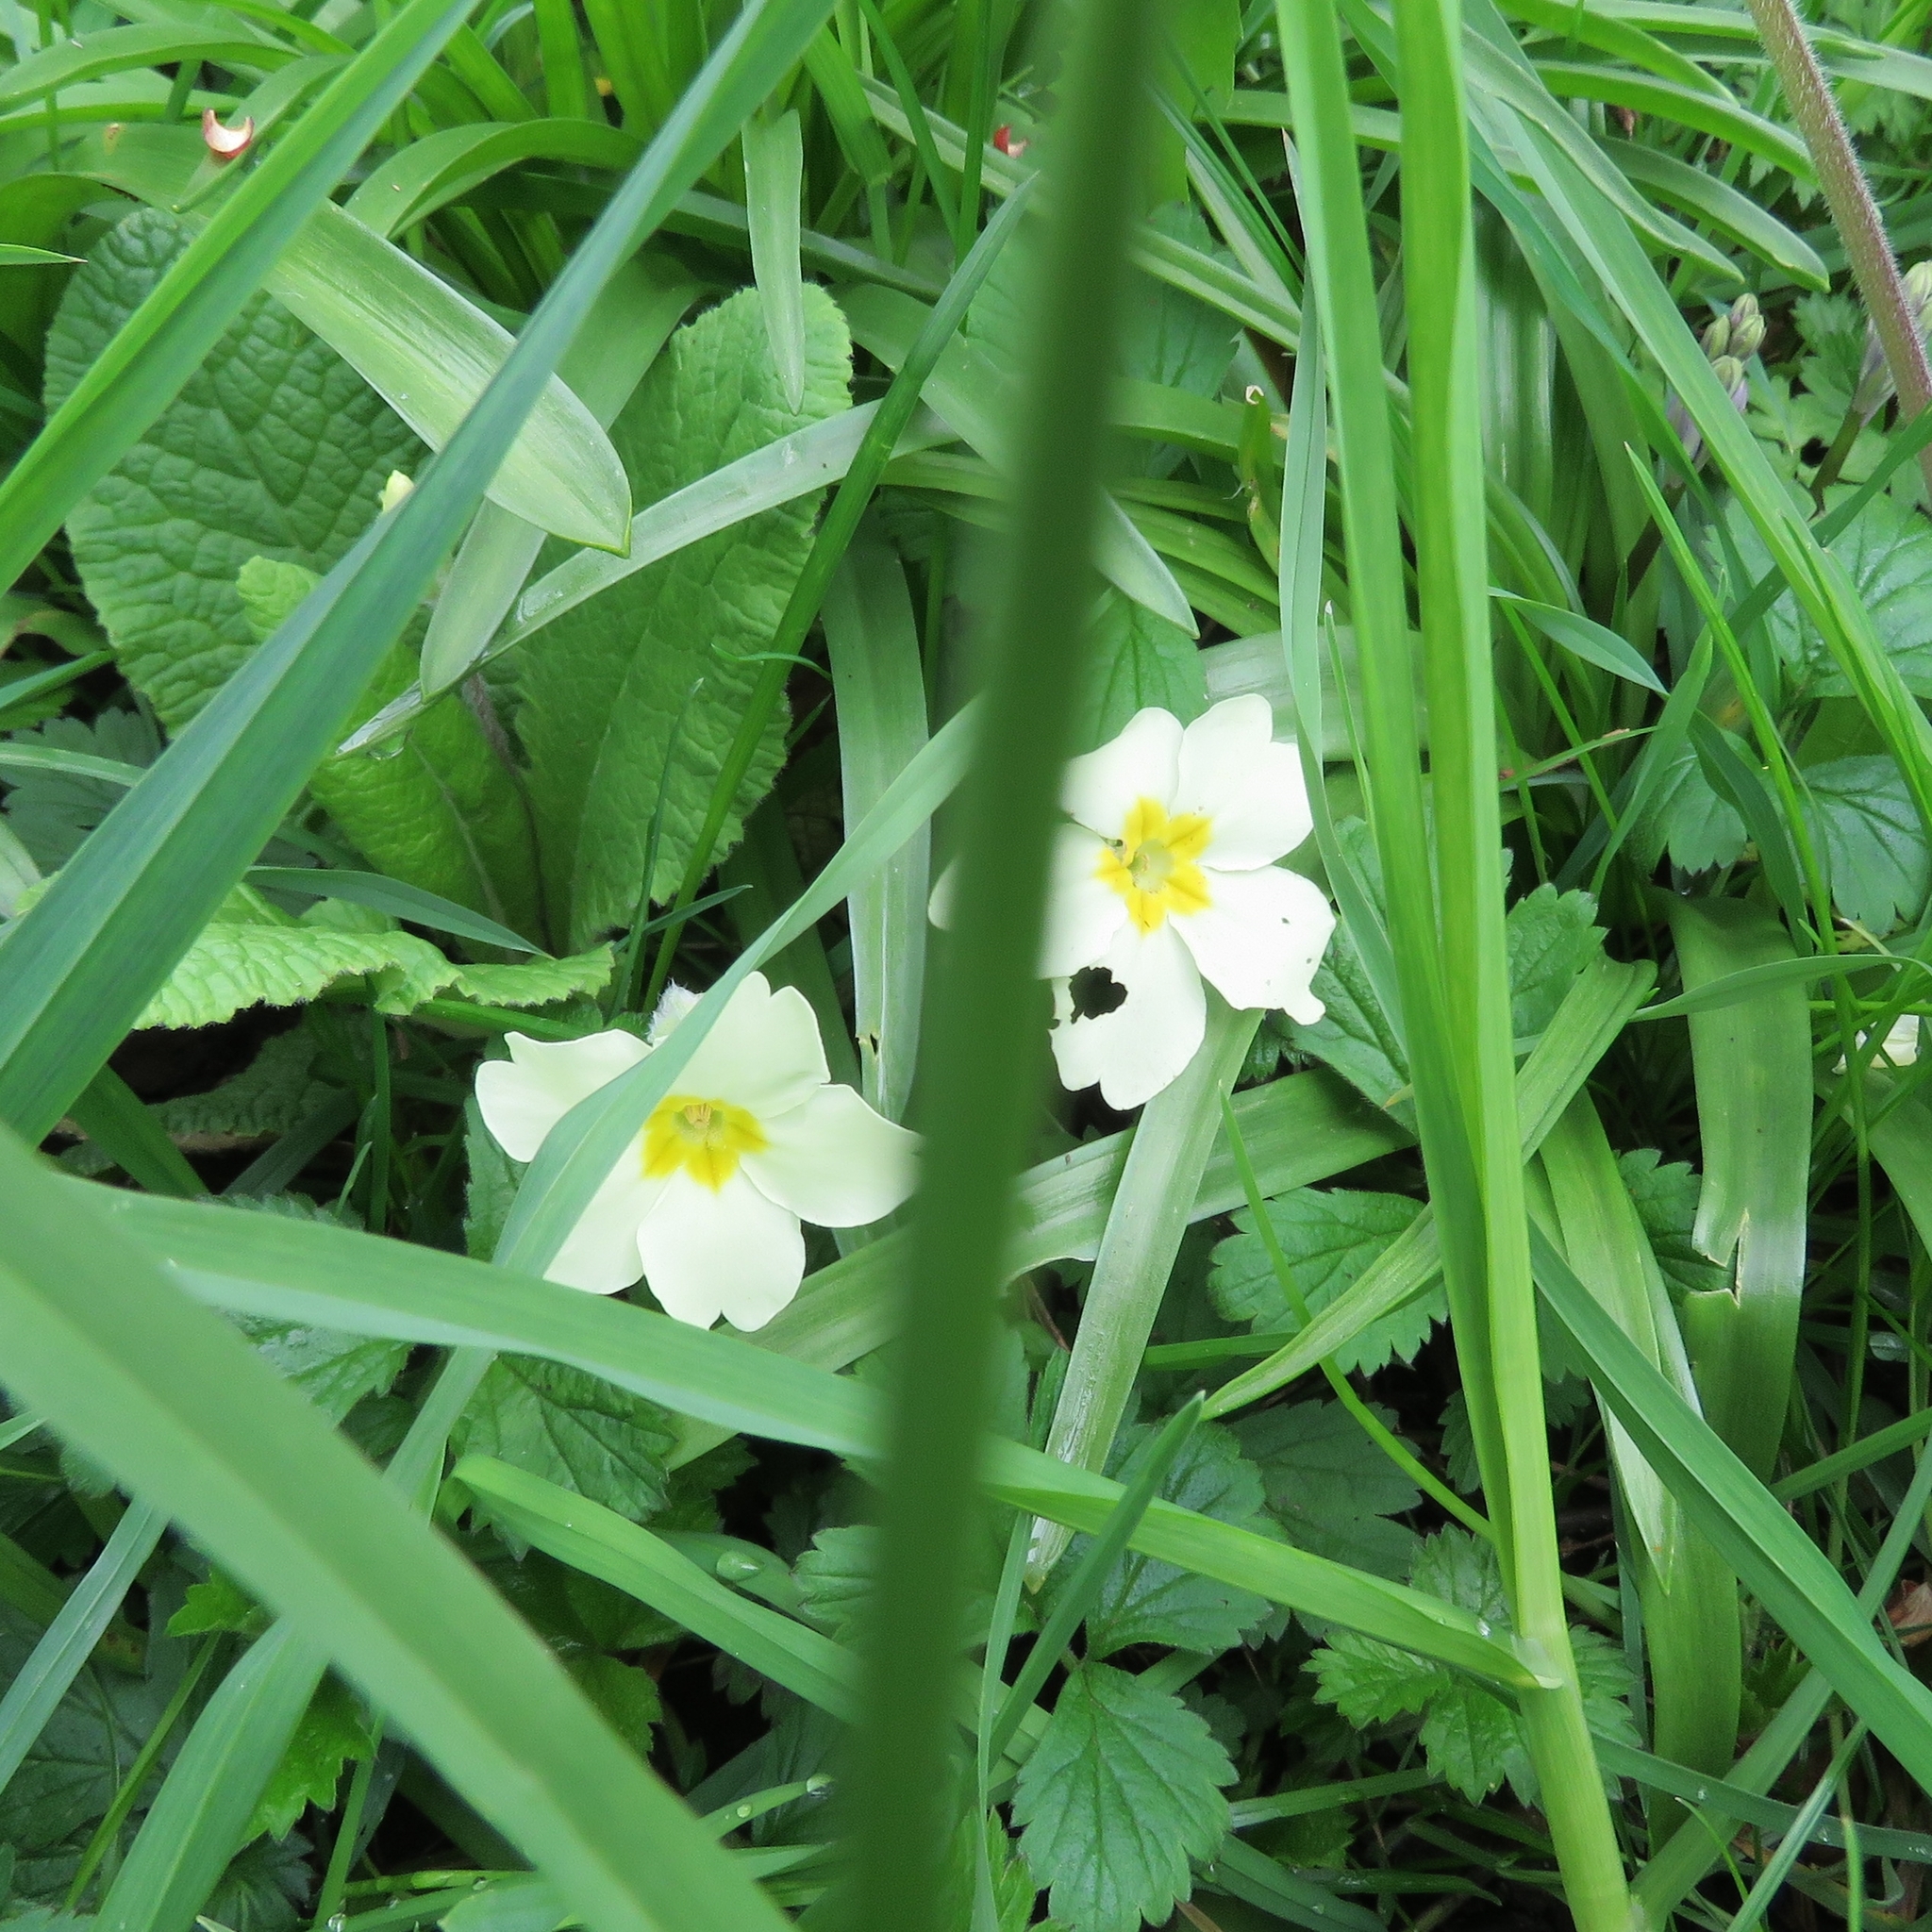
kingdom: Plantae
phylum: Tracheophyta
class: Magnoliopsida
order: Ericales
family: Primulaceae
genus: Primula
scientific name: Primula vulgaris
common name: Primrose
